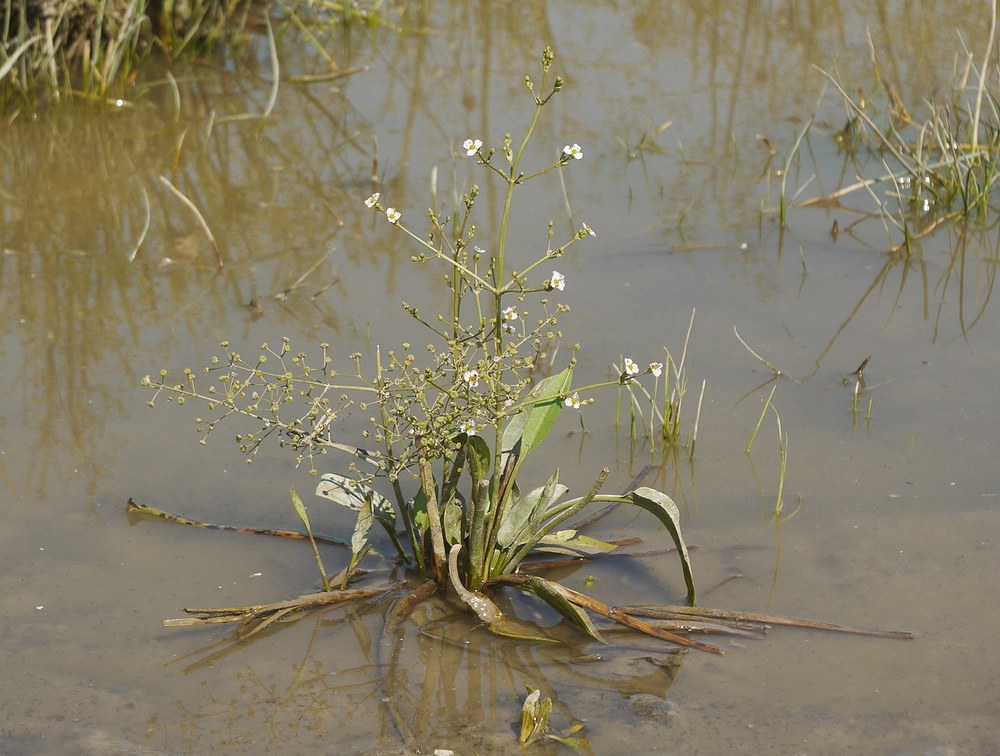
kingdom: Plantae
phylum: Tracheophyta
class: Liliopsida
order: Alismatales
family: Alismataceae
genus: Alisma
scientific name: Alisma plantago-aquatica
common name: Water-plantain
